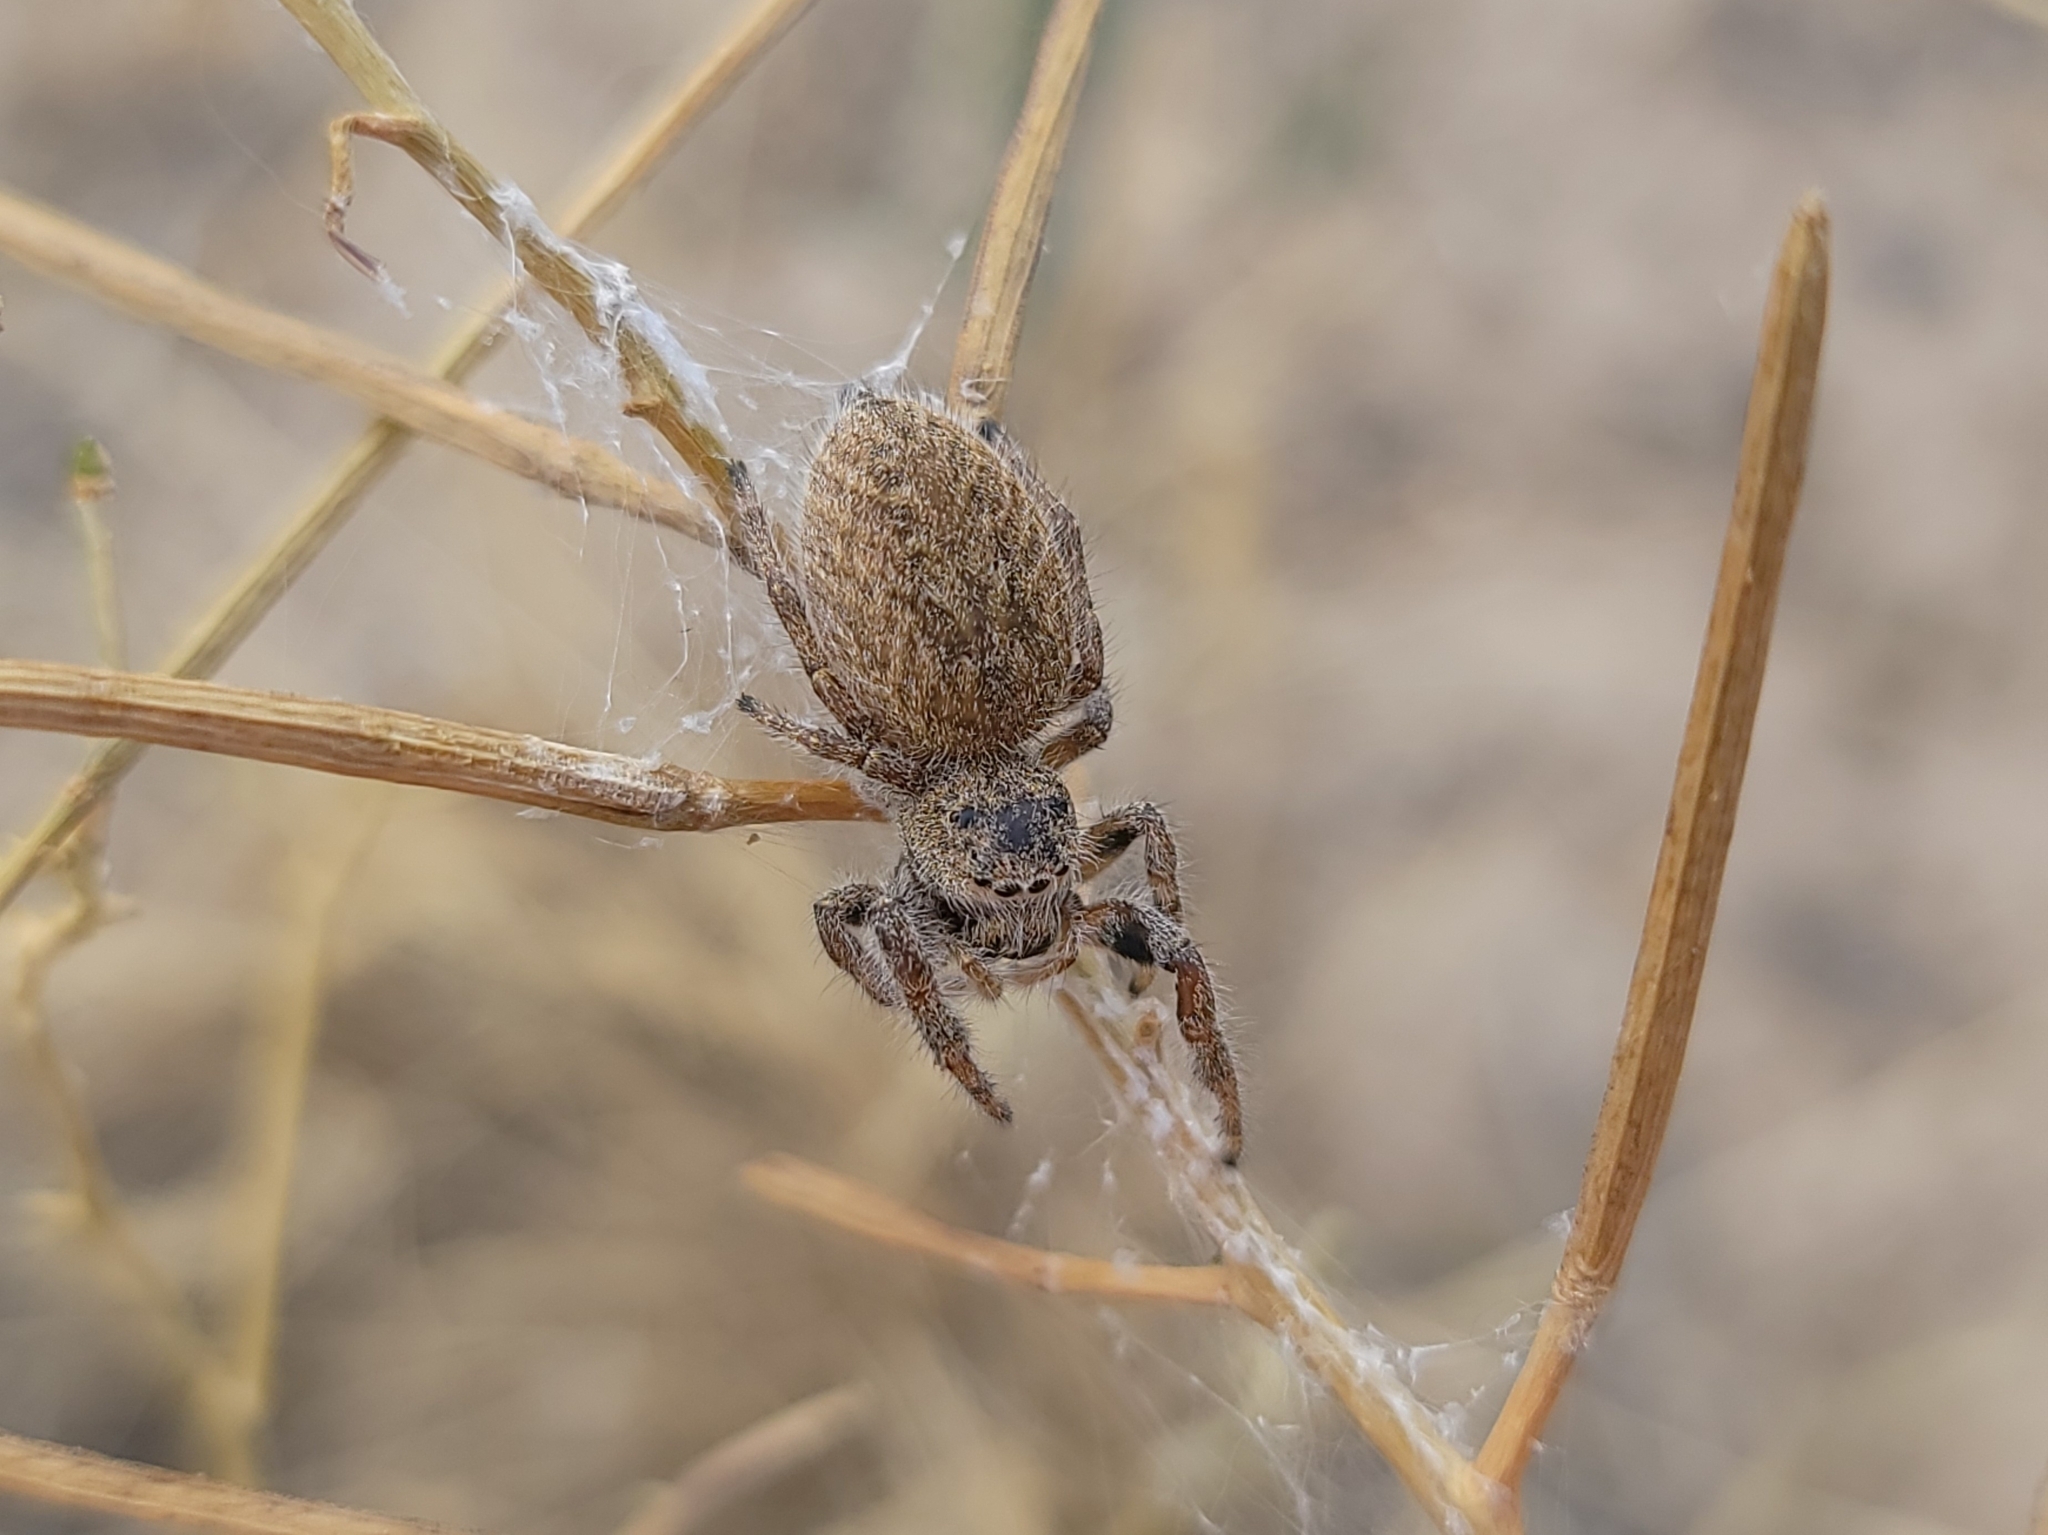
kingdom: Animalia
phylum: Arthropoda
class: Arachnida
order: Araneae
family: Salticidae
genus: Phidippus
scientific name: Phidippus octopunctatus
